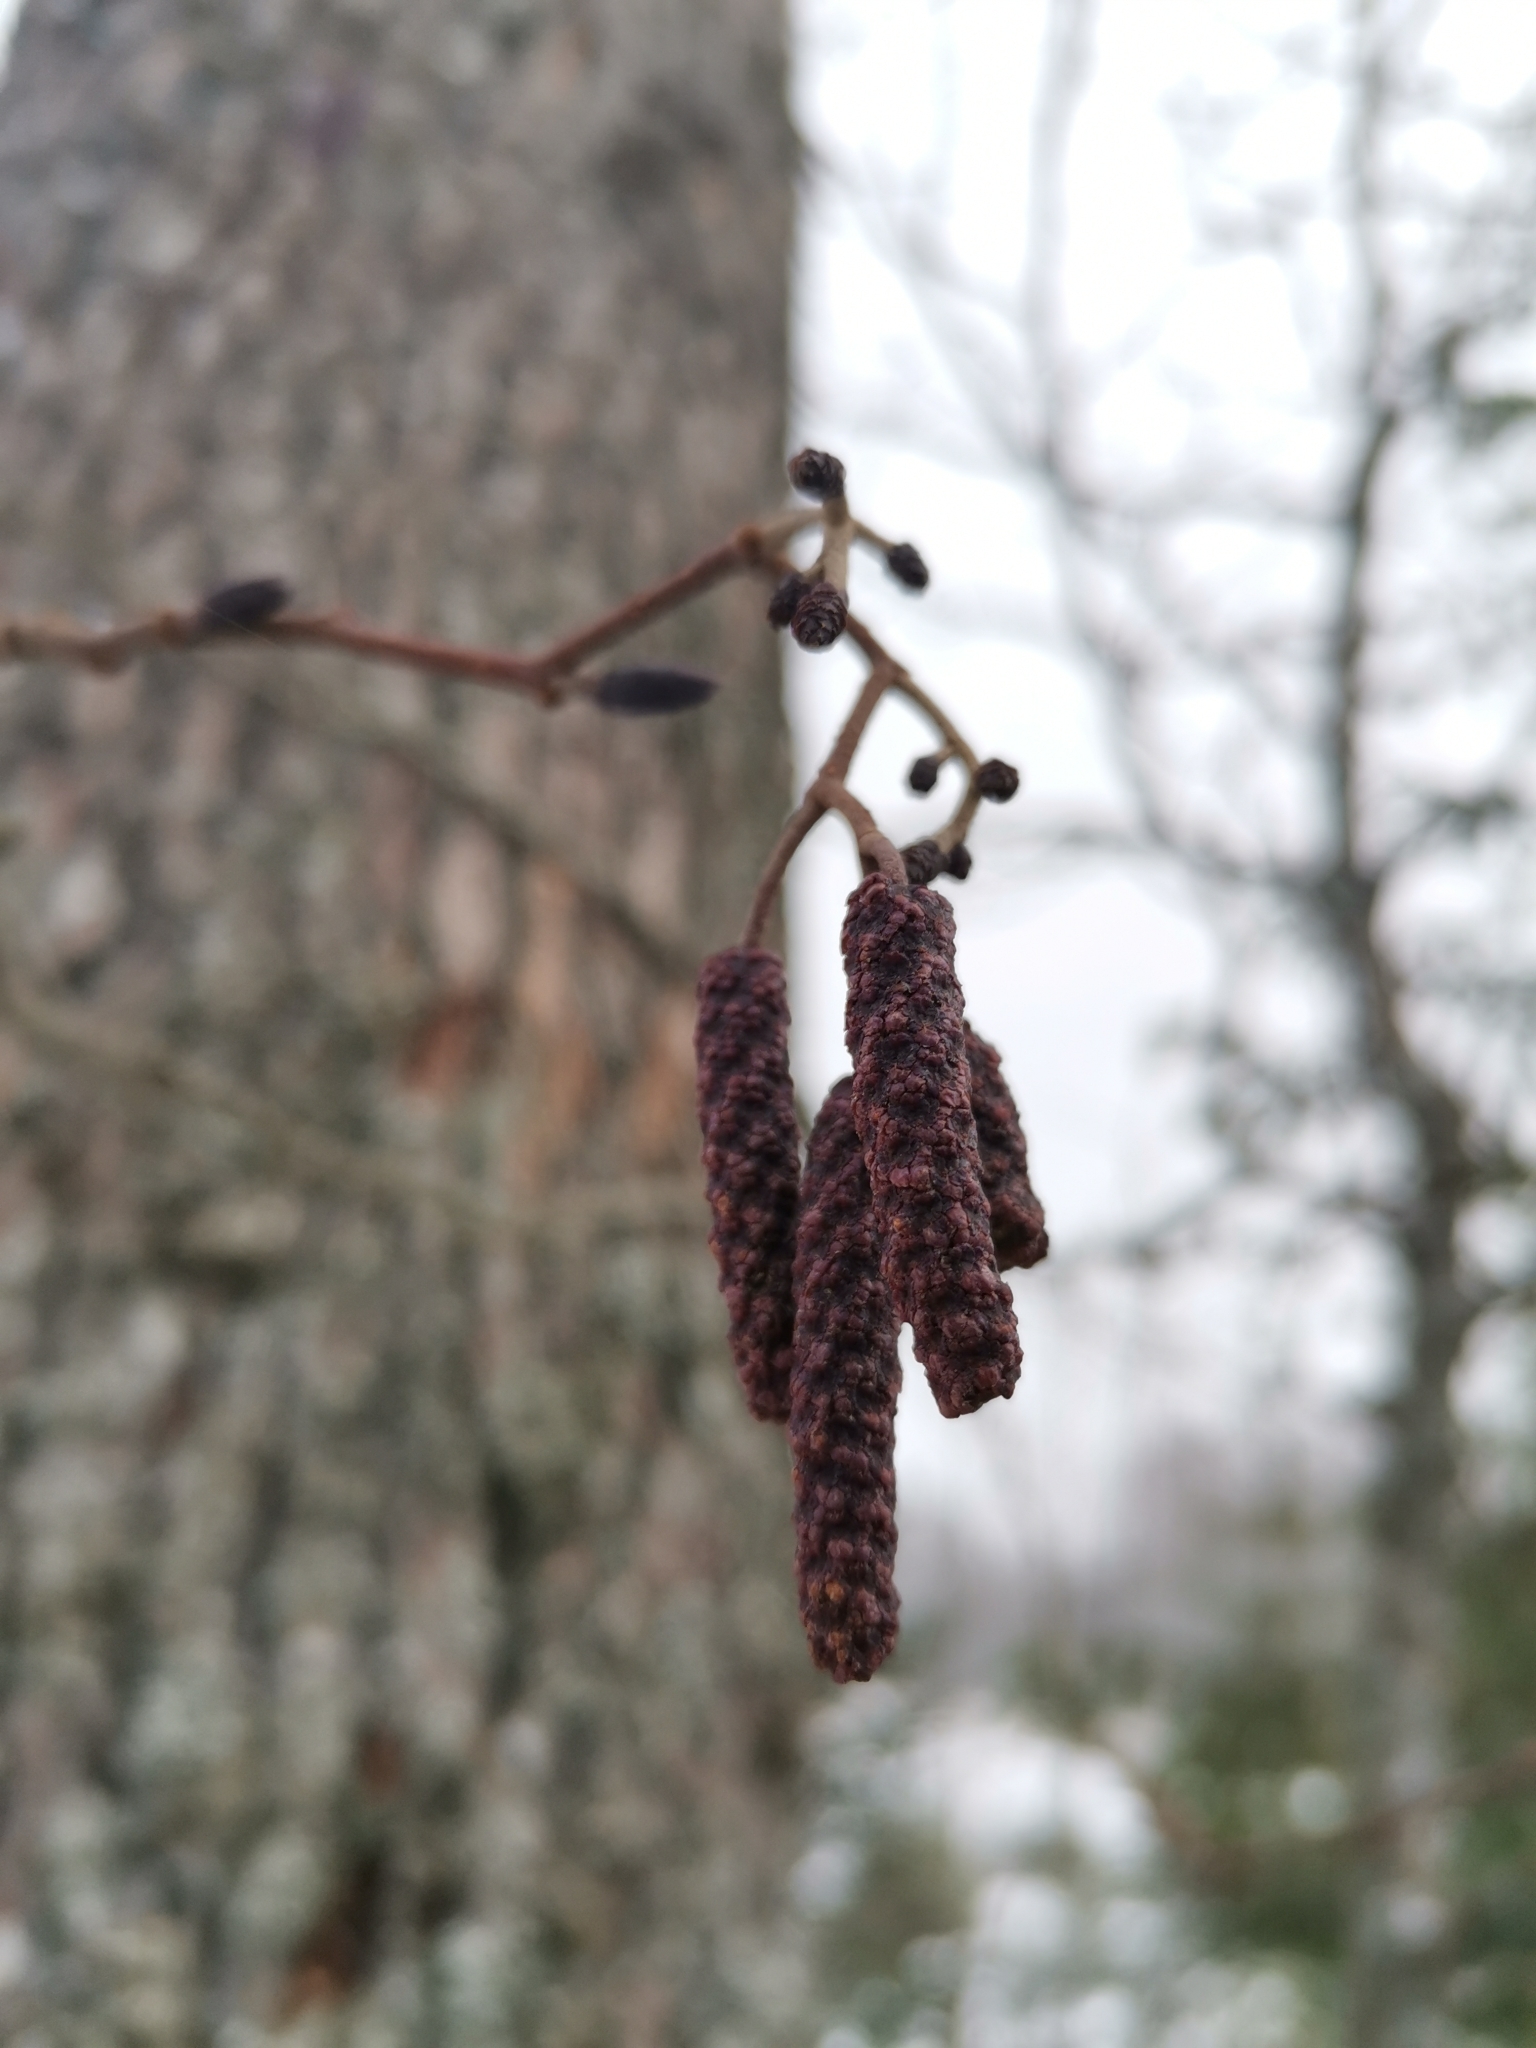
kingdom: Plantae
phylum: Tracheophyta
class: Magnoliopsida
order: Fagales
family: Betulaceae
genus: Alnus
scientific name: Alnus glutinosa
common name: Black alder
